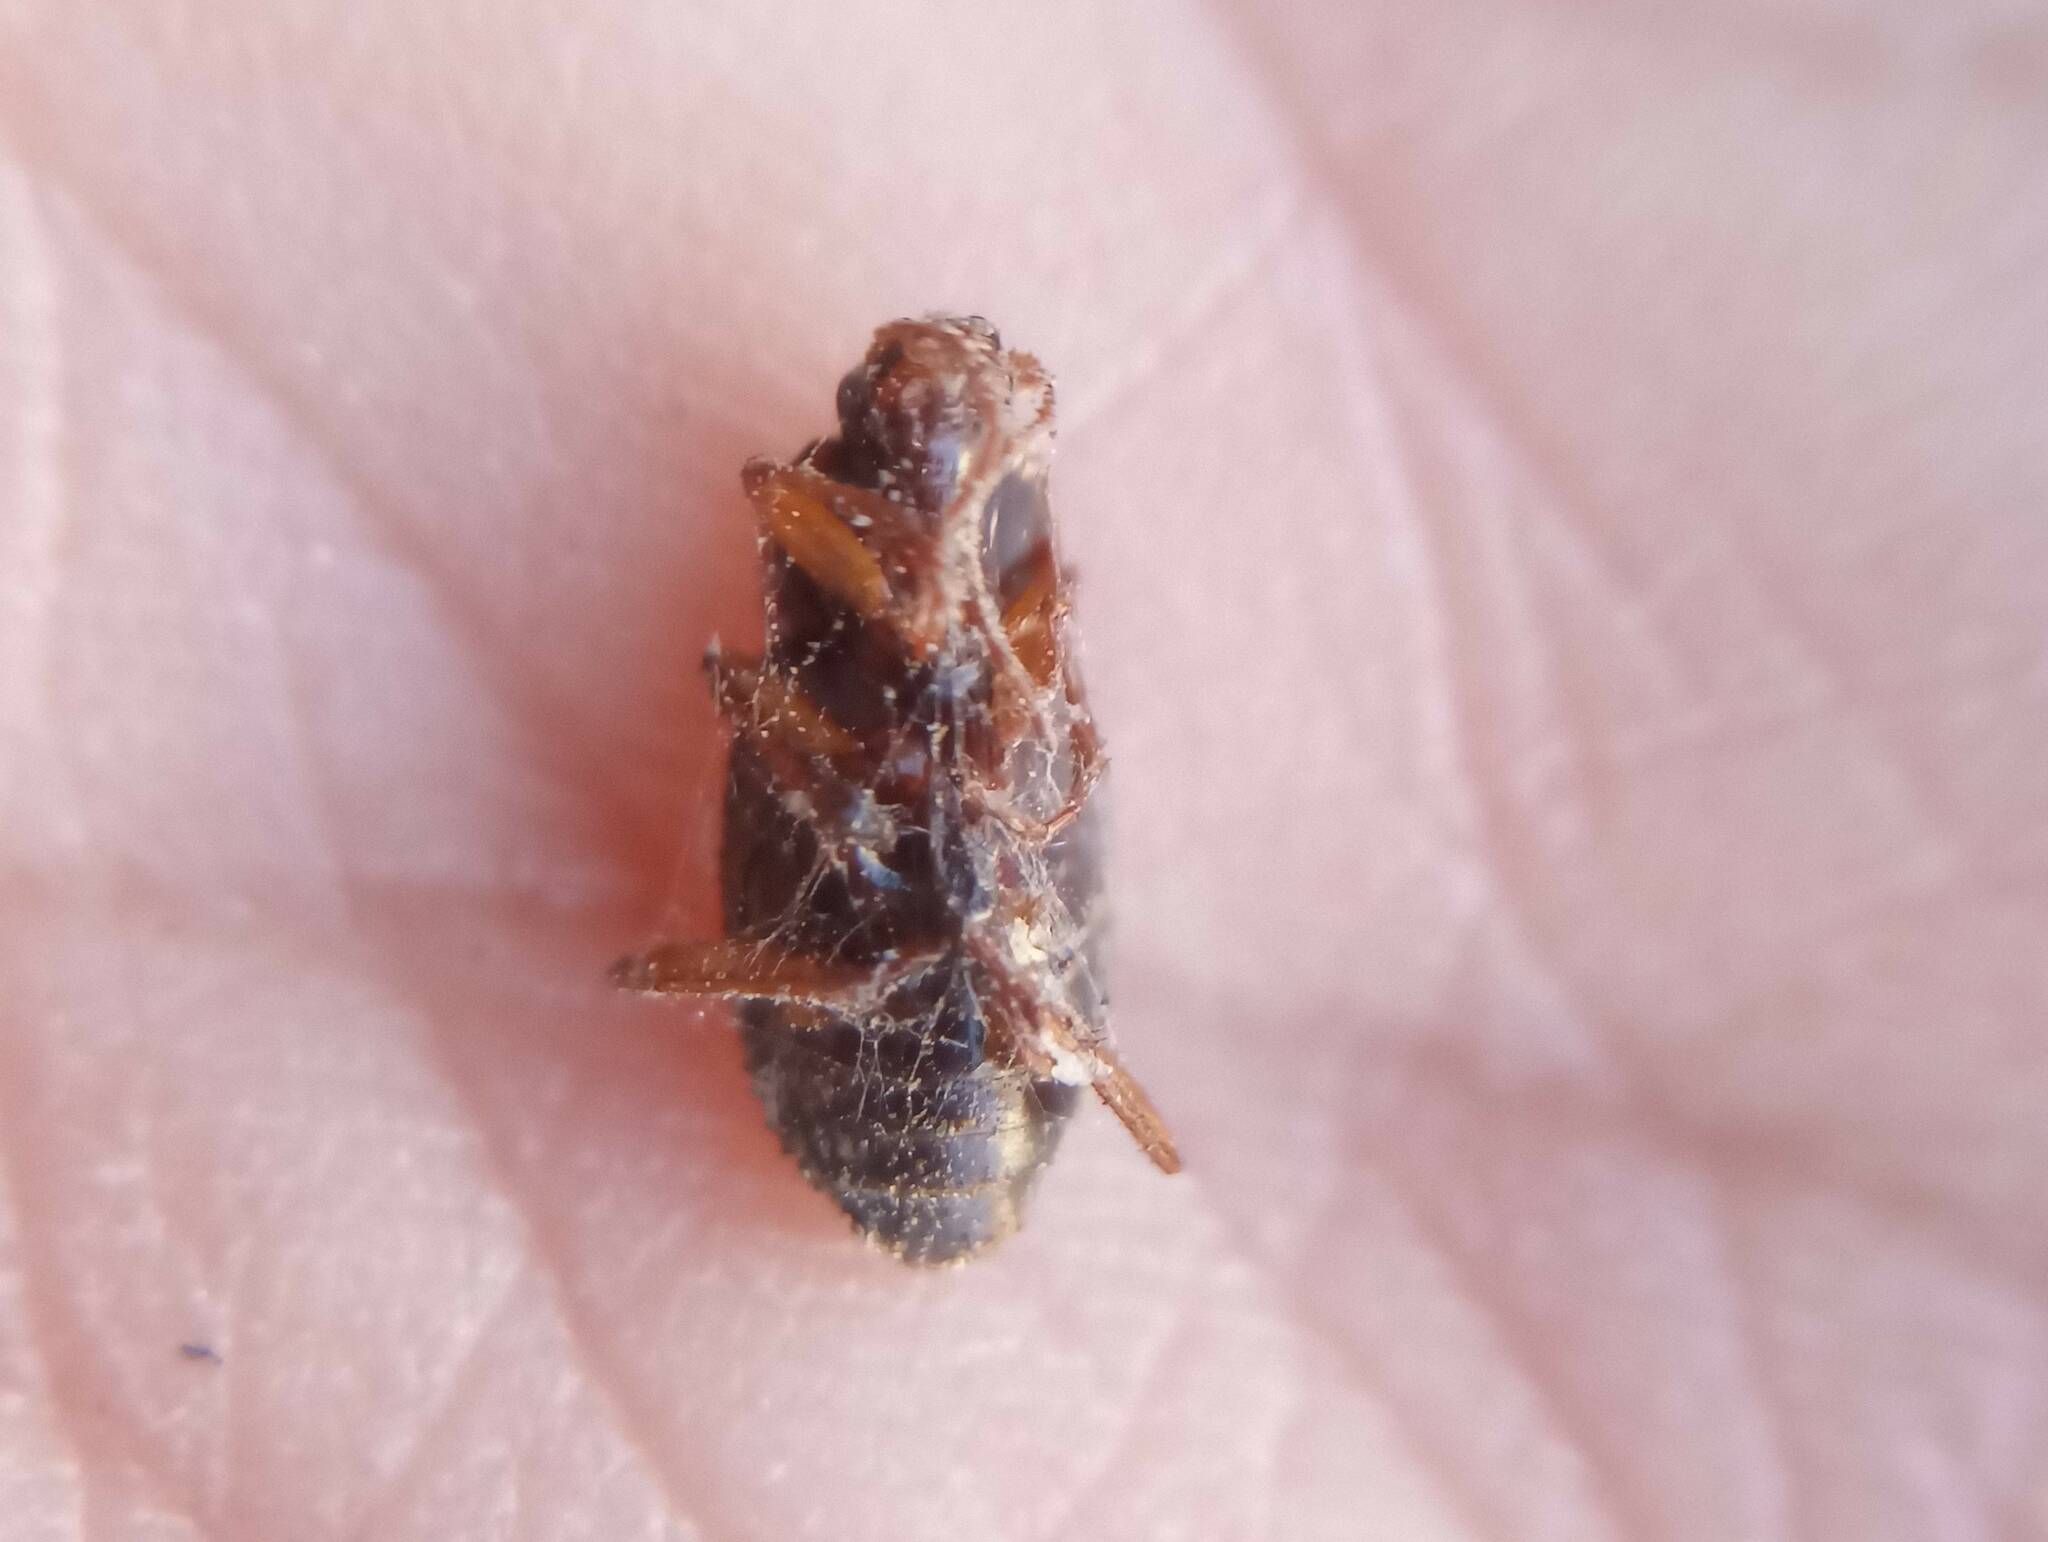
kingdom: Animalia
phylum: Arthropoda
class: Insecta
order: Coleoptera
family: Carabidae
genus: Calathus
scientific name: Calathus ruficollis
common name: Red-collared harp ground beetle
